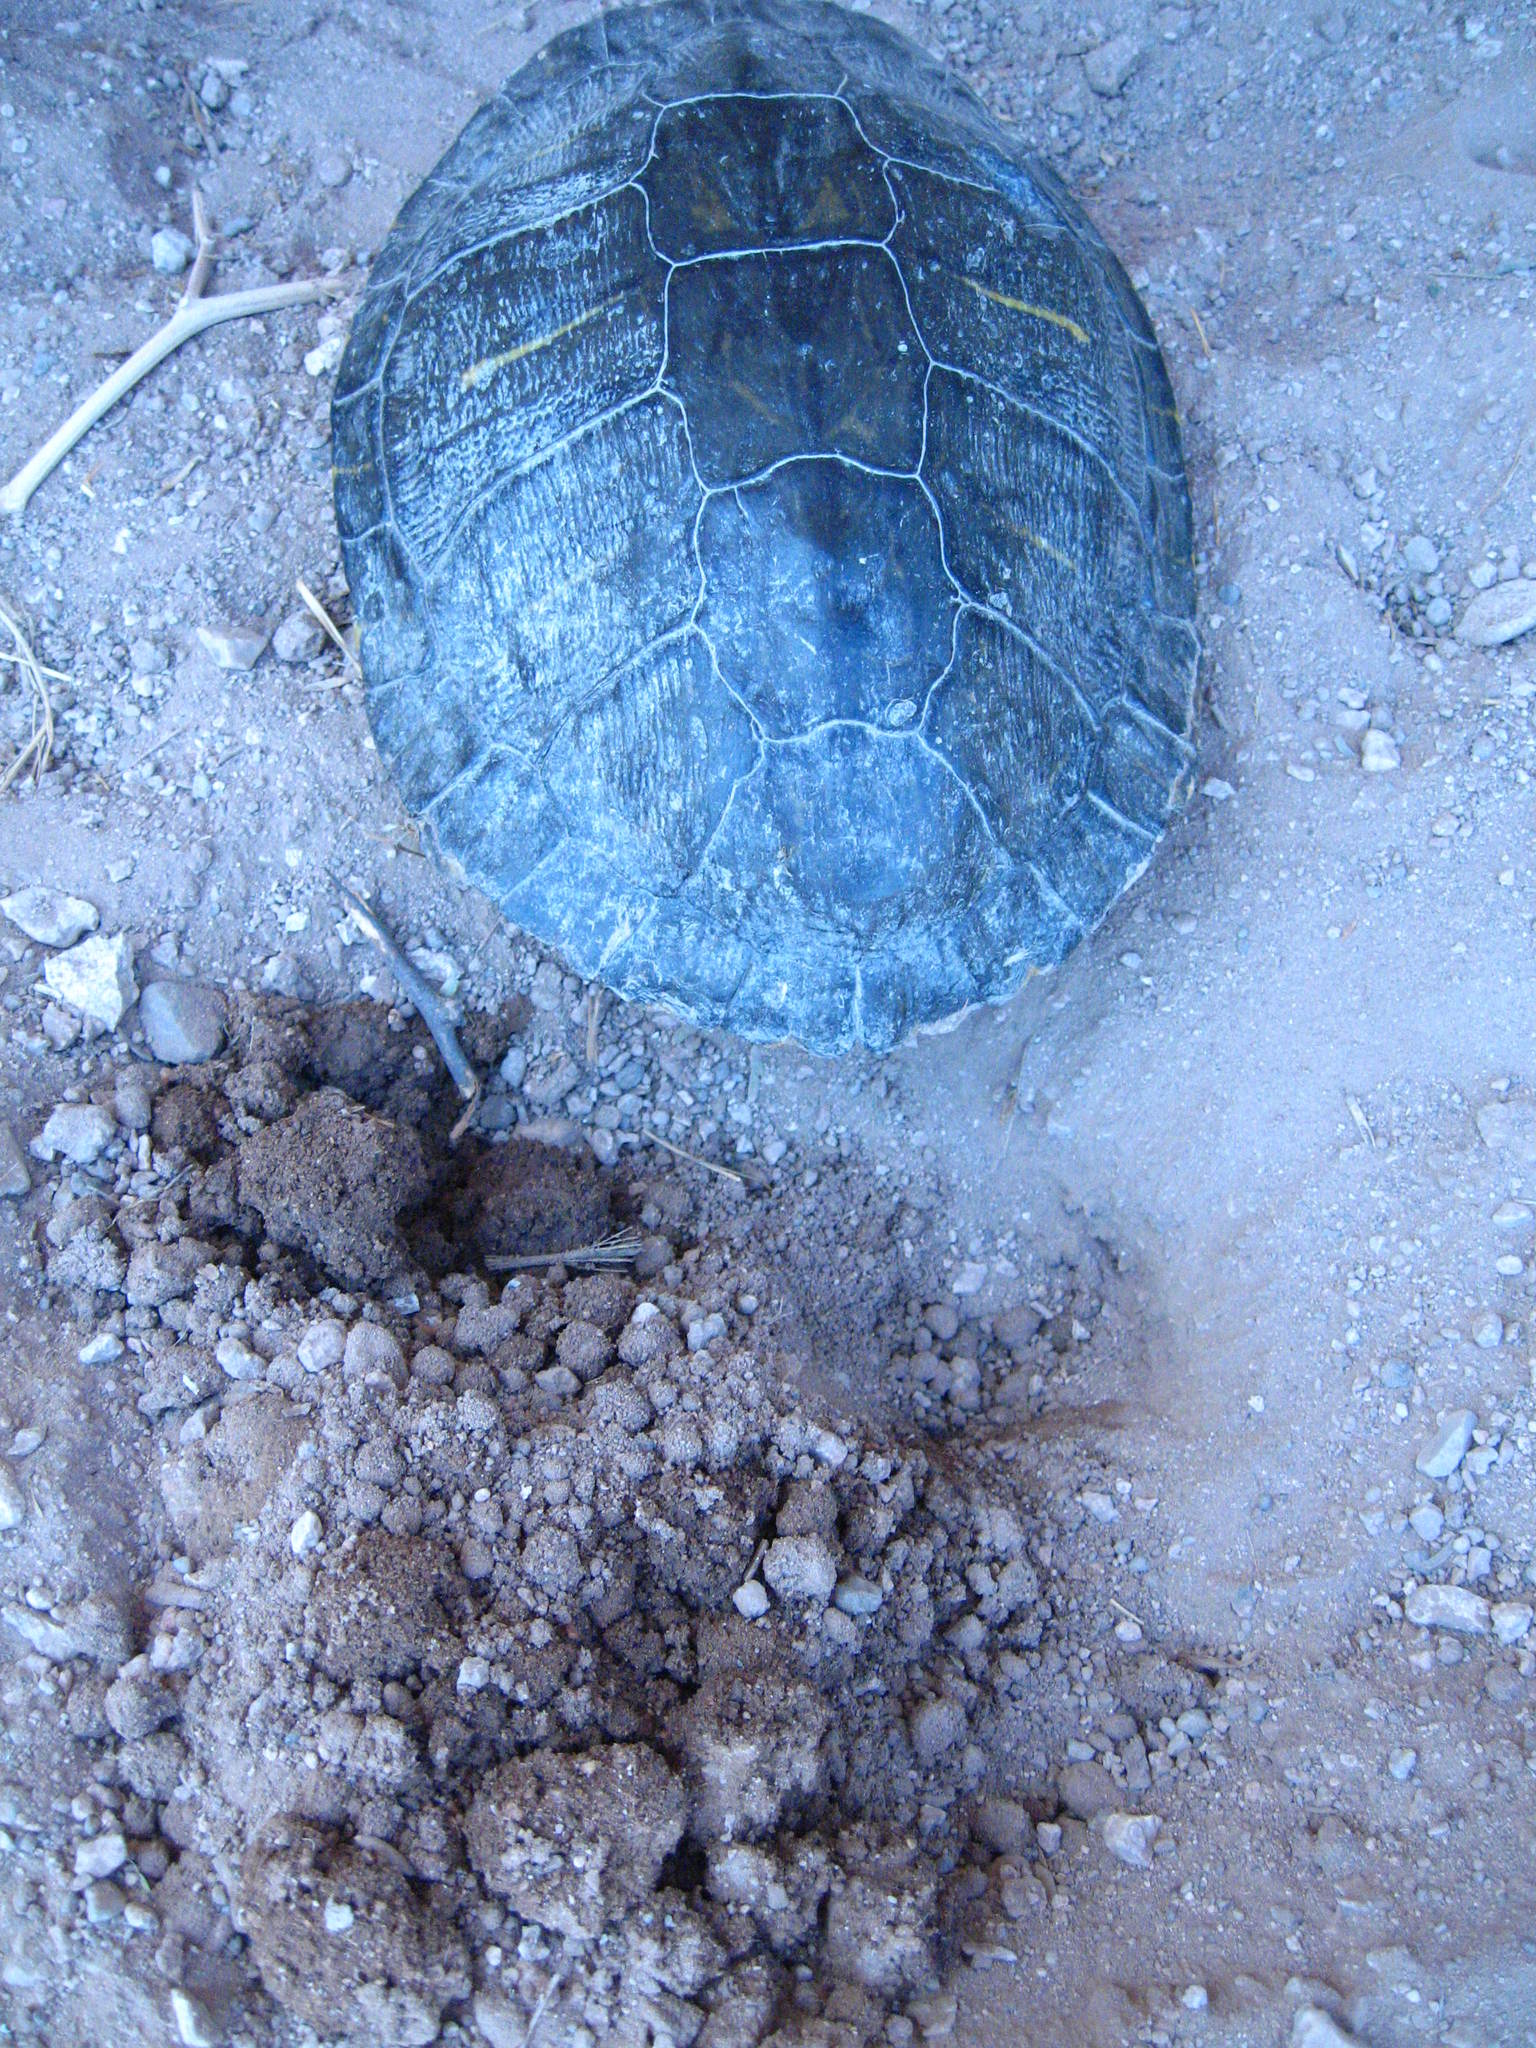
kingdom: Animalia
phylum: Chordata
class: Testudines
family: Emydidae
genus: Trachemys
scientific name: Trachemys scripta
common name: Slider
